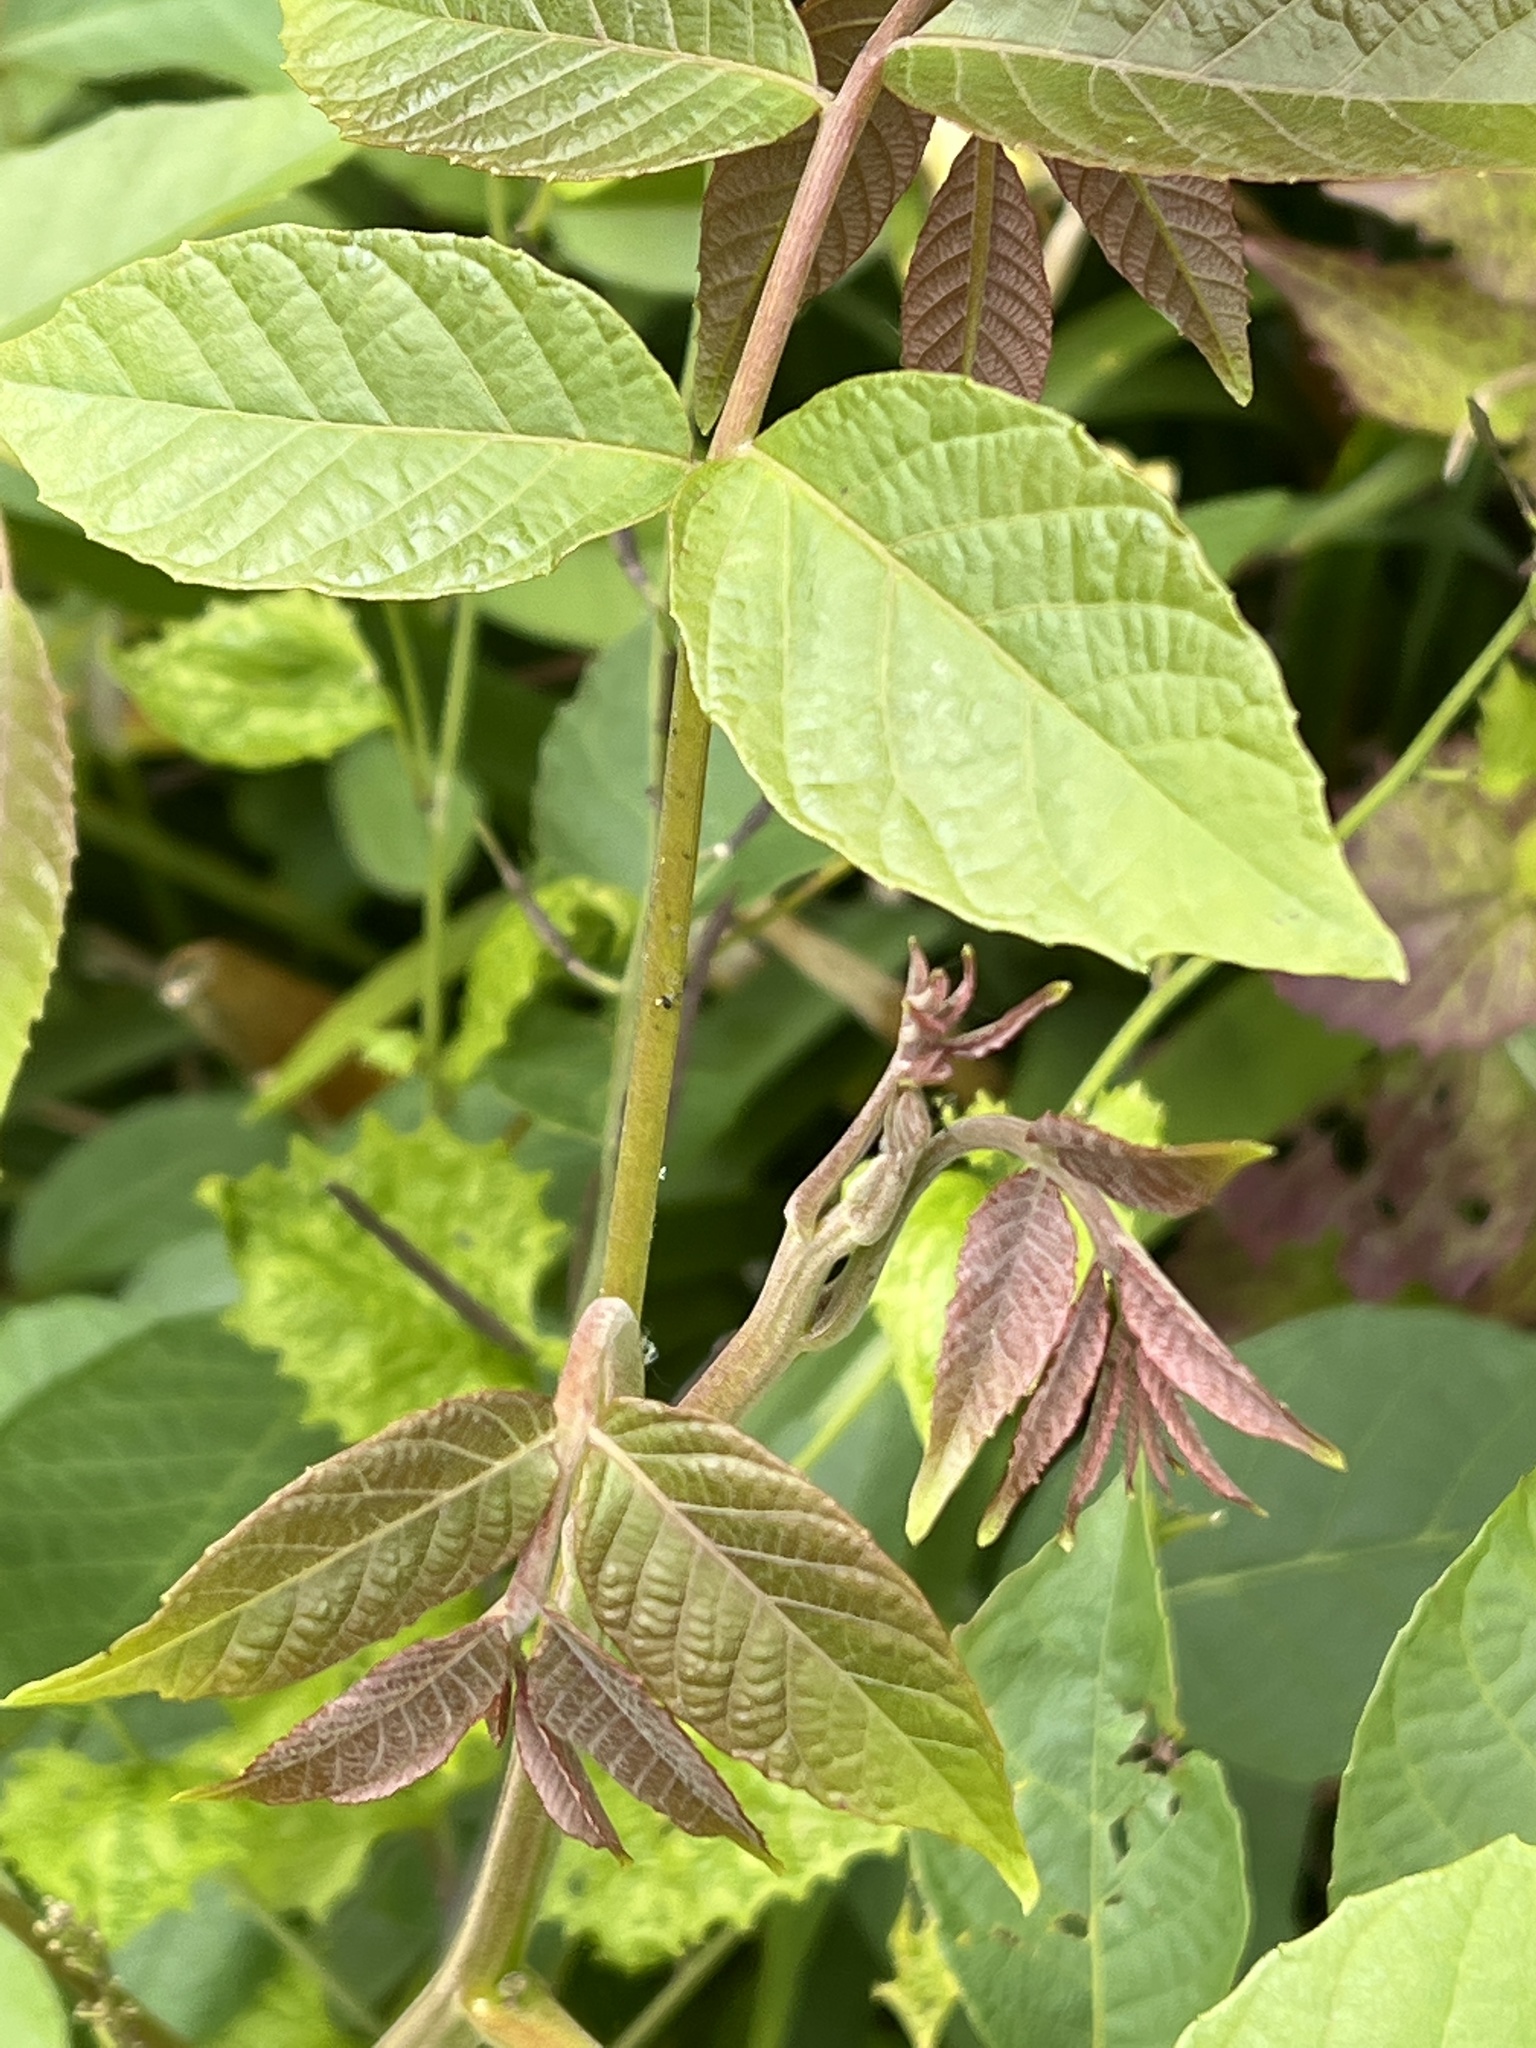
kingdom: Plantae
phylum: Tracheophyta
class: Magnoliopsida
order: Fagales
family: Juglandaceae
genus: Juglans
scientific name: Juglans regia
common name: Walnut
